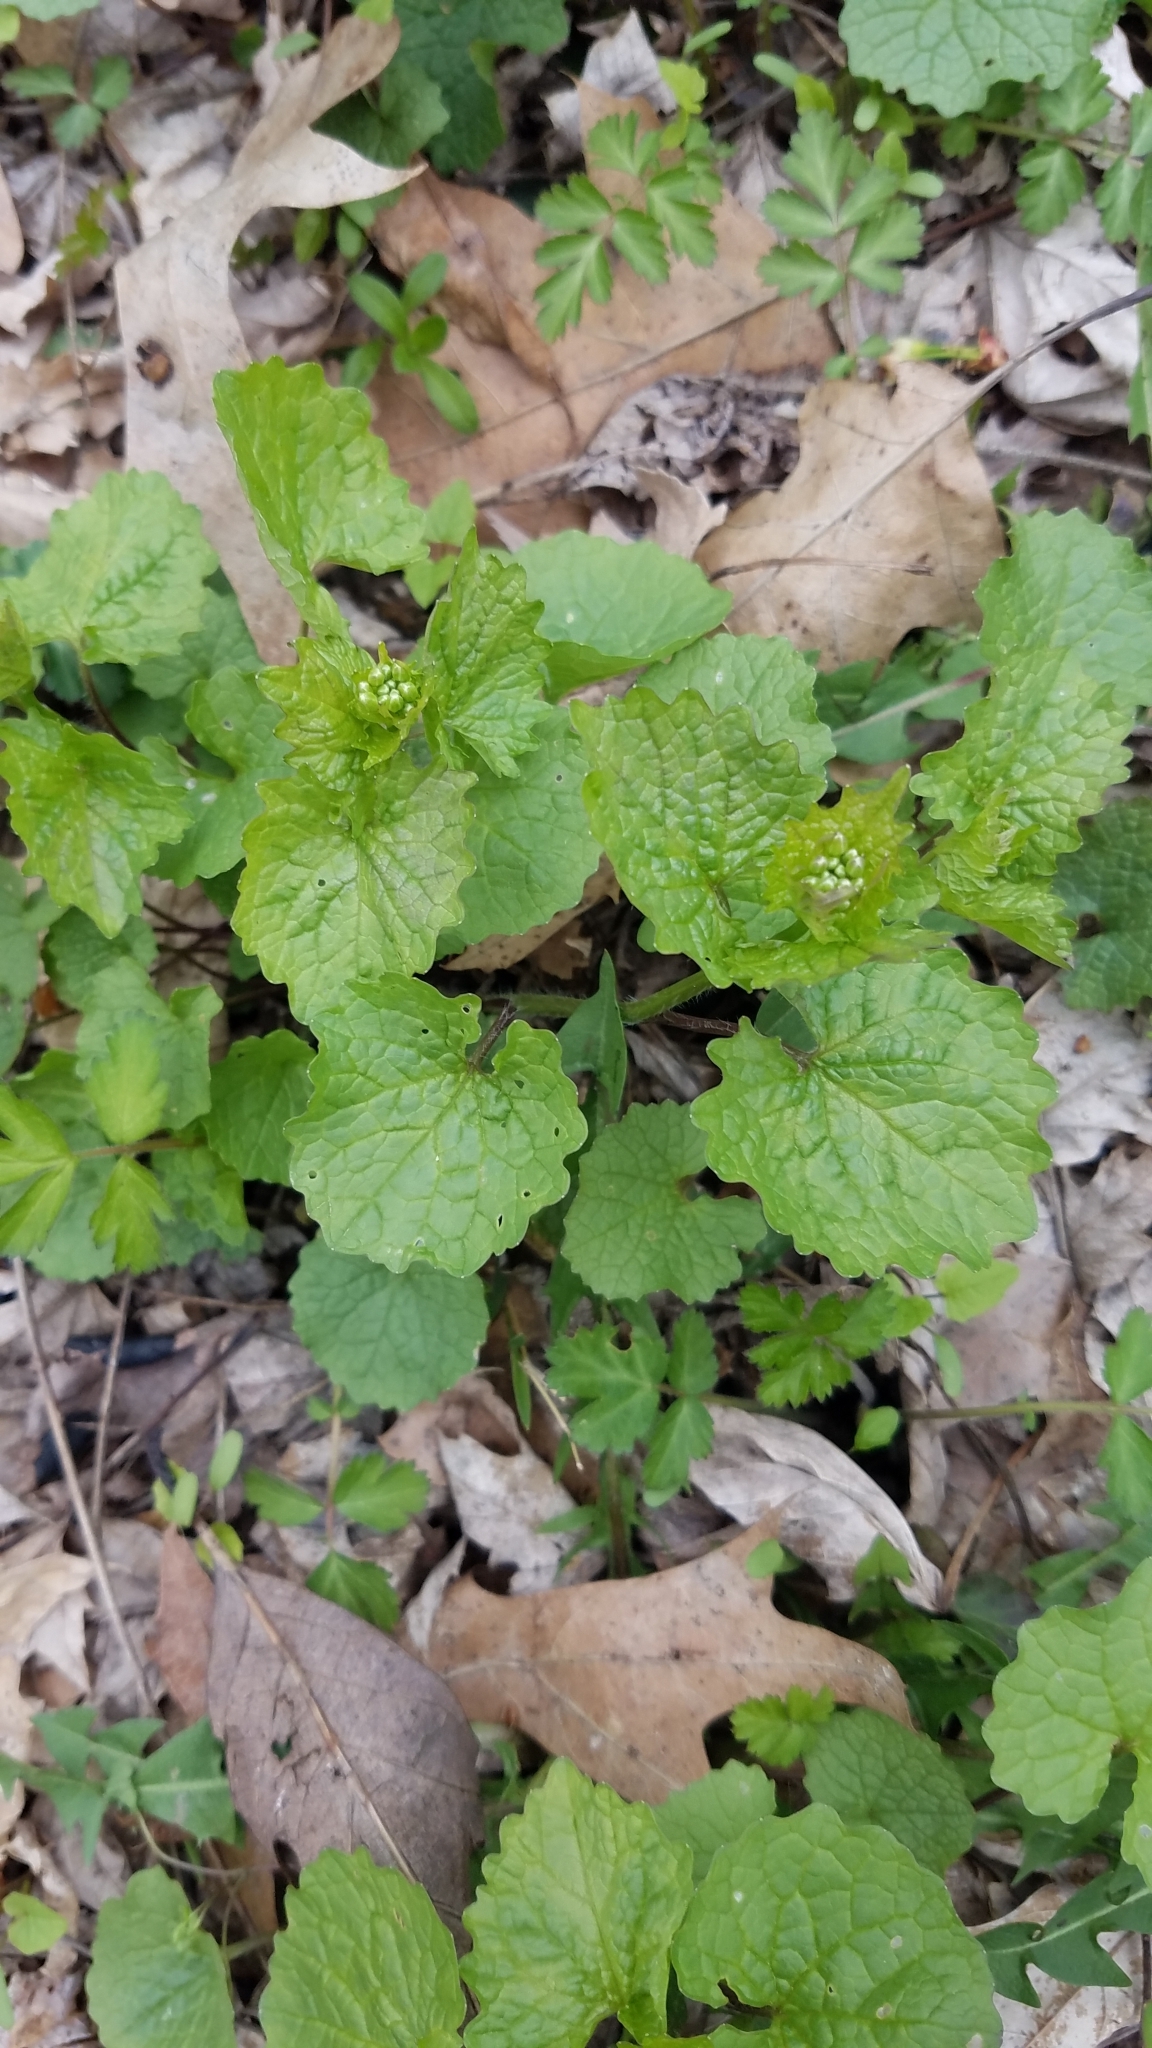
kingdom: Plantae
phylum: Tracheophyta
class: Magnoliopsida
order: Brassicales
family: Brassicaceae
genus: Alliaria
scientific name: Alliaria petiolata
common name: Garlic mustard
